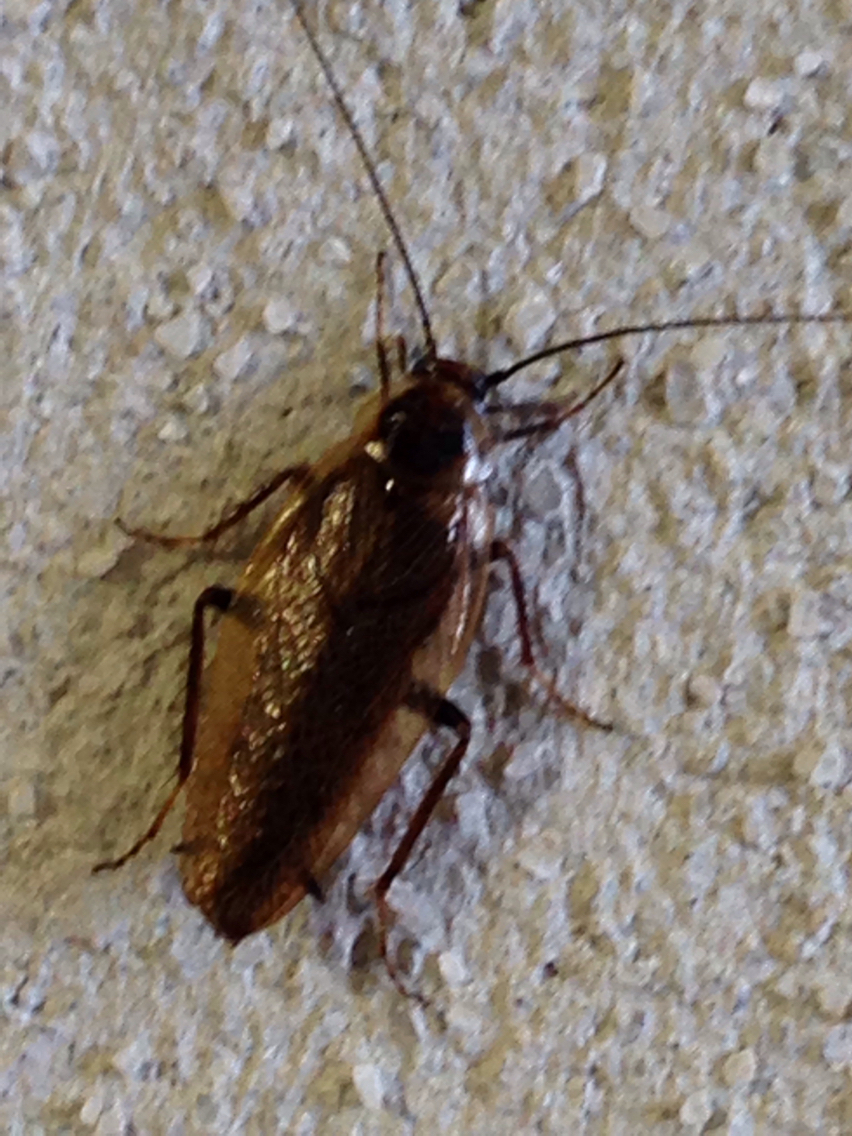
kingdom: Animalia
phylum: Arthropoda
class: Insecta
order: Blattodea
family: Ectobiidae
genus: Ectobius
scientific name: Ectobius lapponicus
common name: Dusky cockroach
